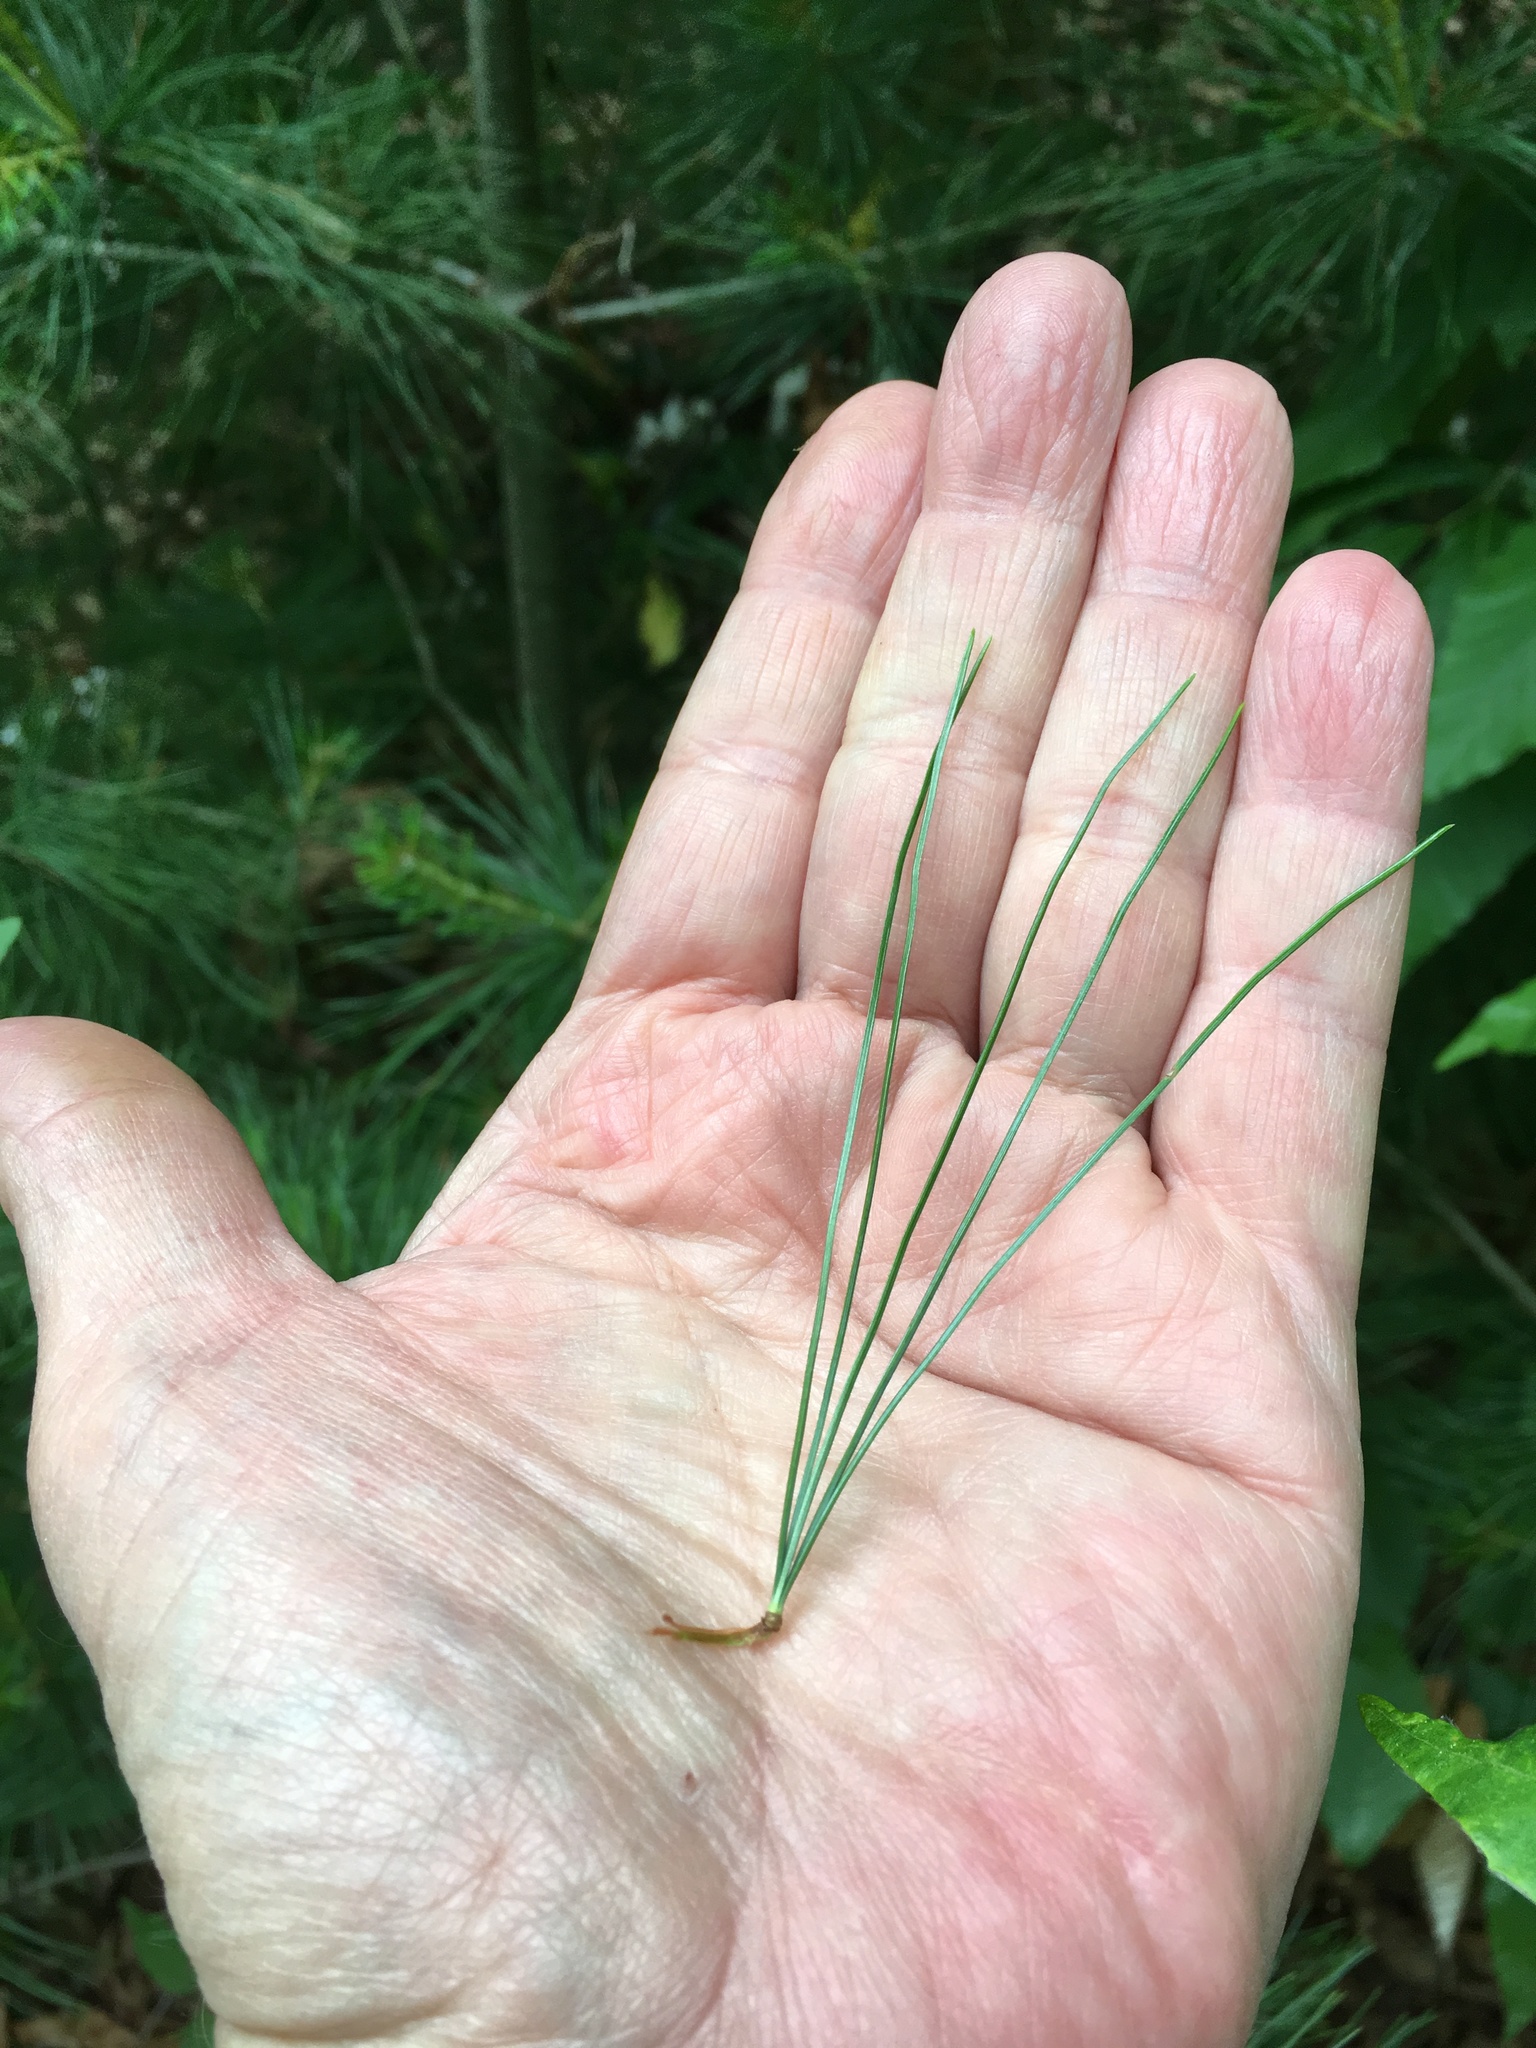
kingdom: Plantae
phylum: Tracheophyta
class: Pinopsida
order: Pinales
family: Pinaceae
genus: Pinus
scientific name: Pinus strobus
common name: Weymouth pine
